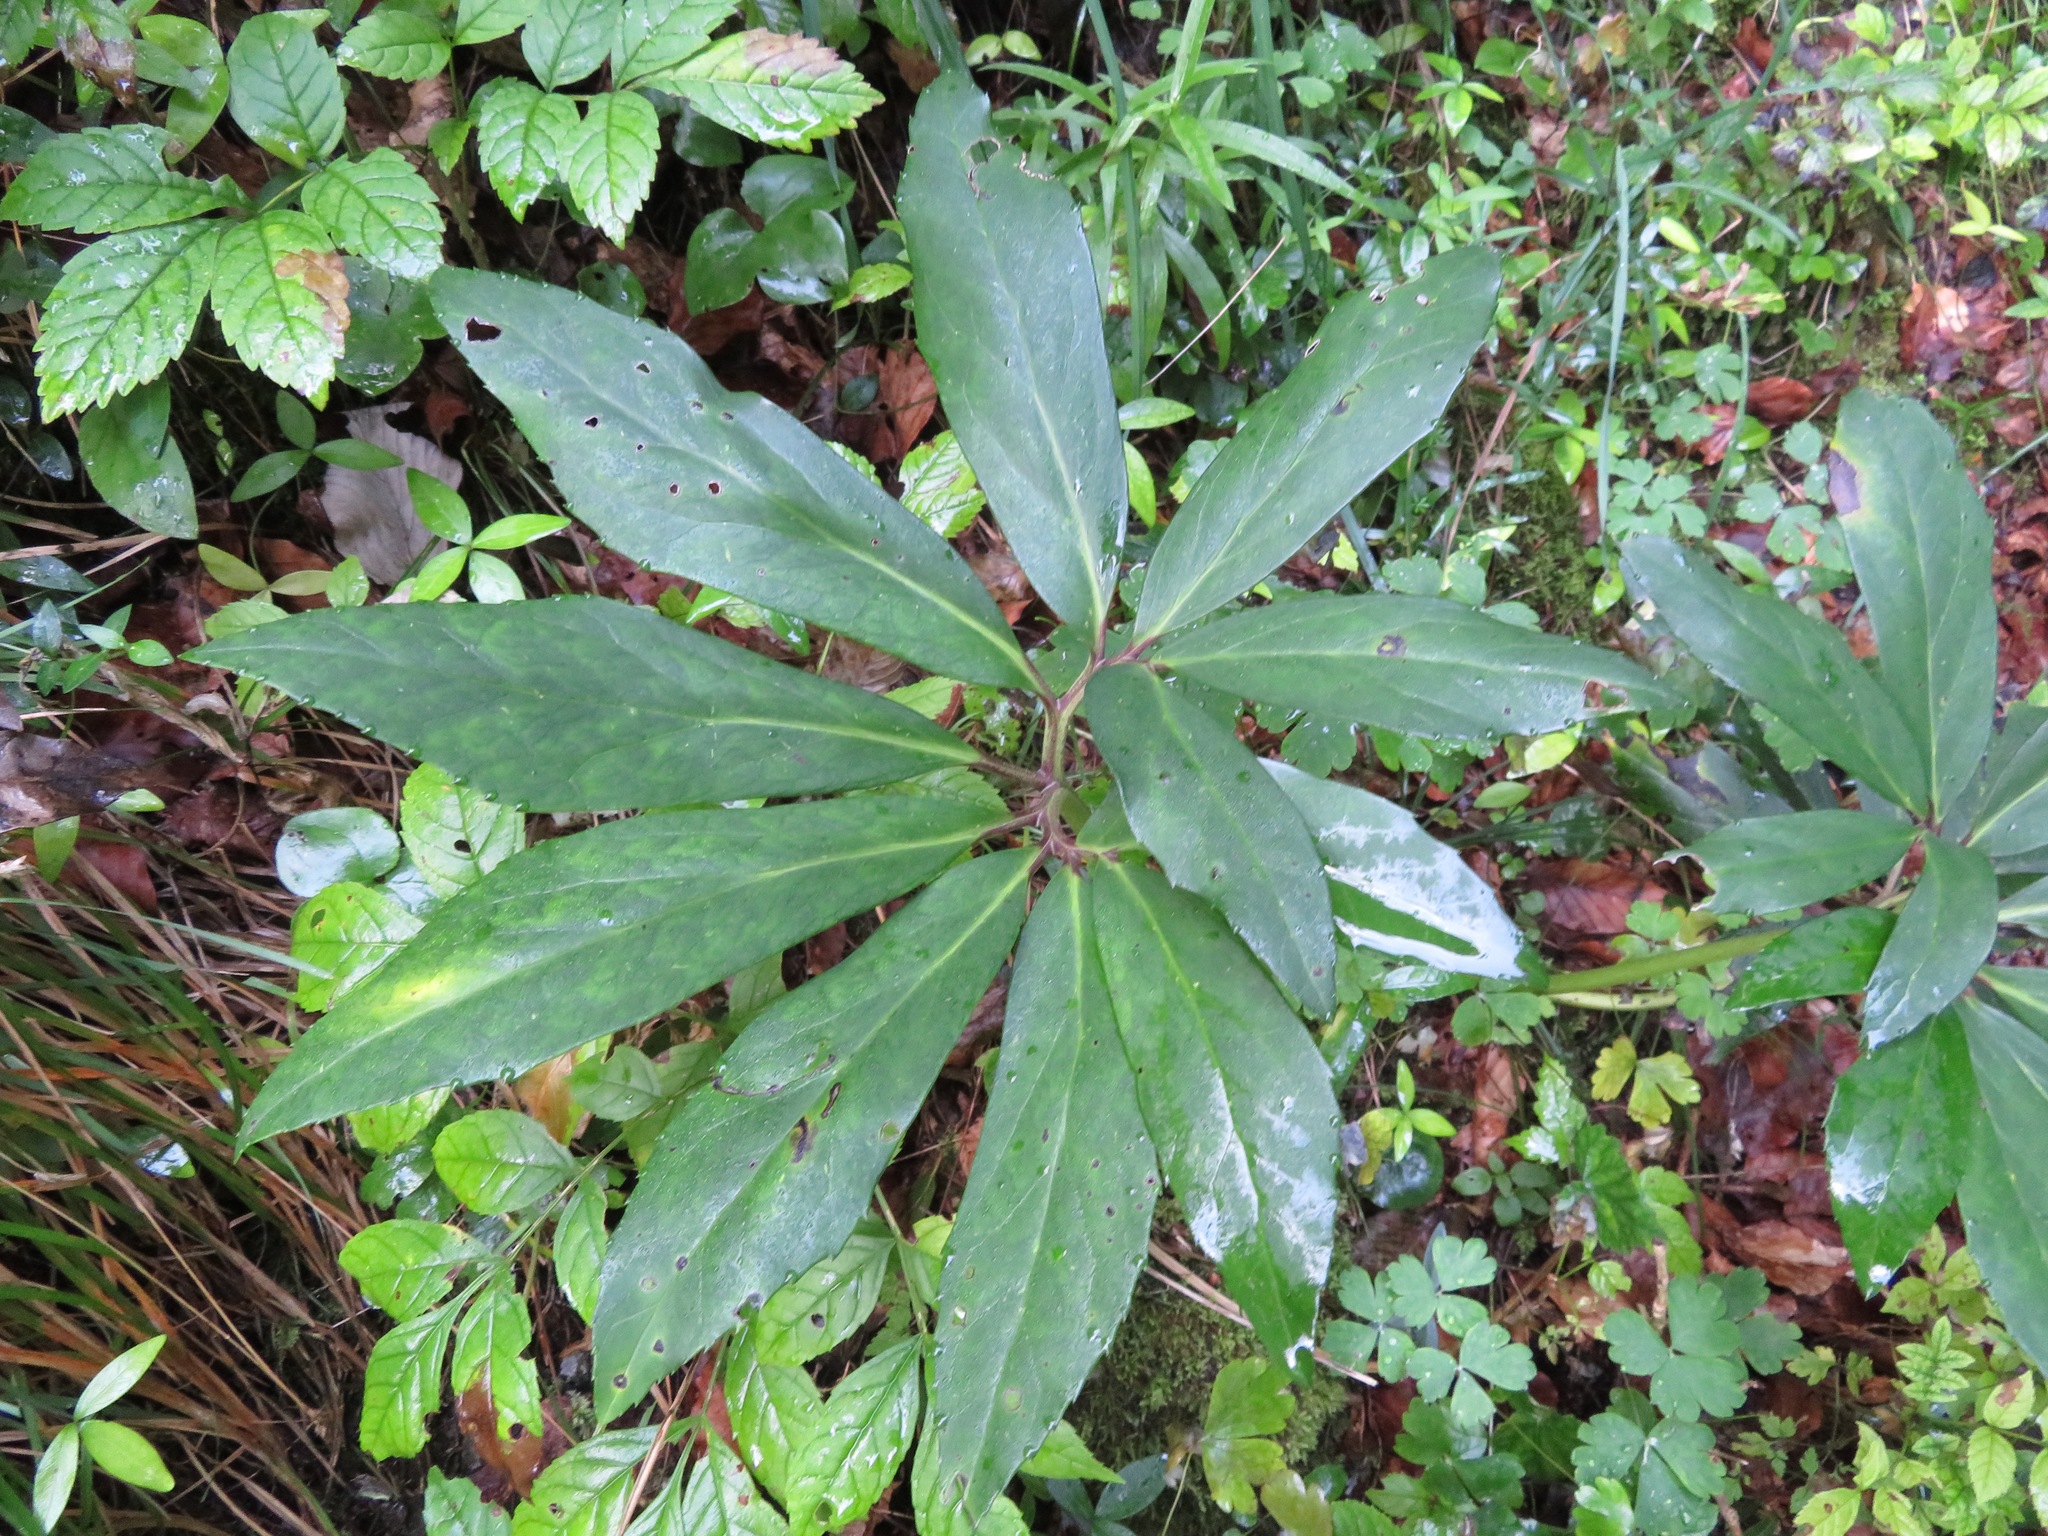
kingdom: Plantae
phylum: Tracheophyta
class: Magnoliopsida
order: Ranunculales
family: Ranunculaceae
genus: Helleborus
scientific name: Helleborus niger
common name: Black hellebore
